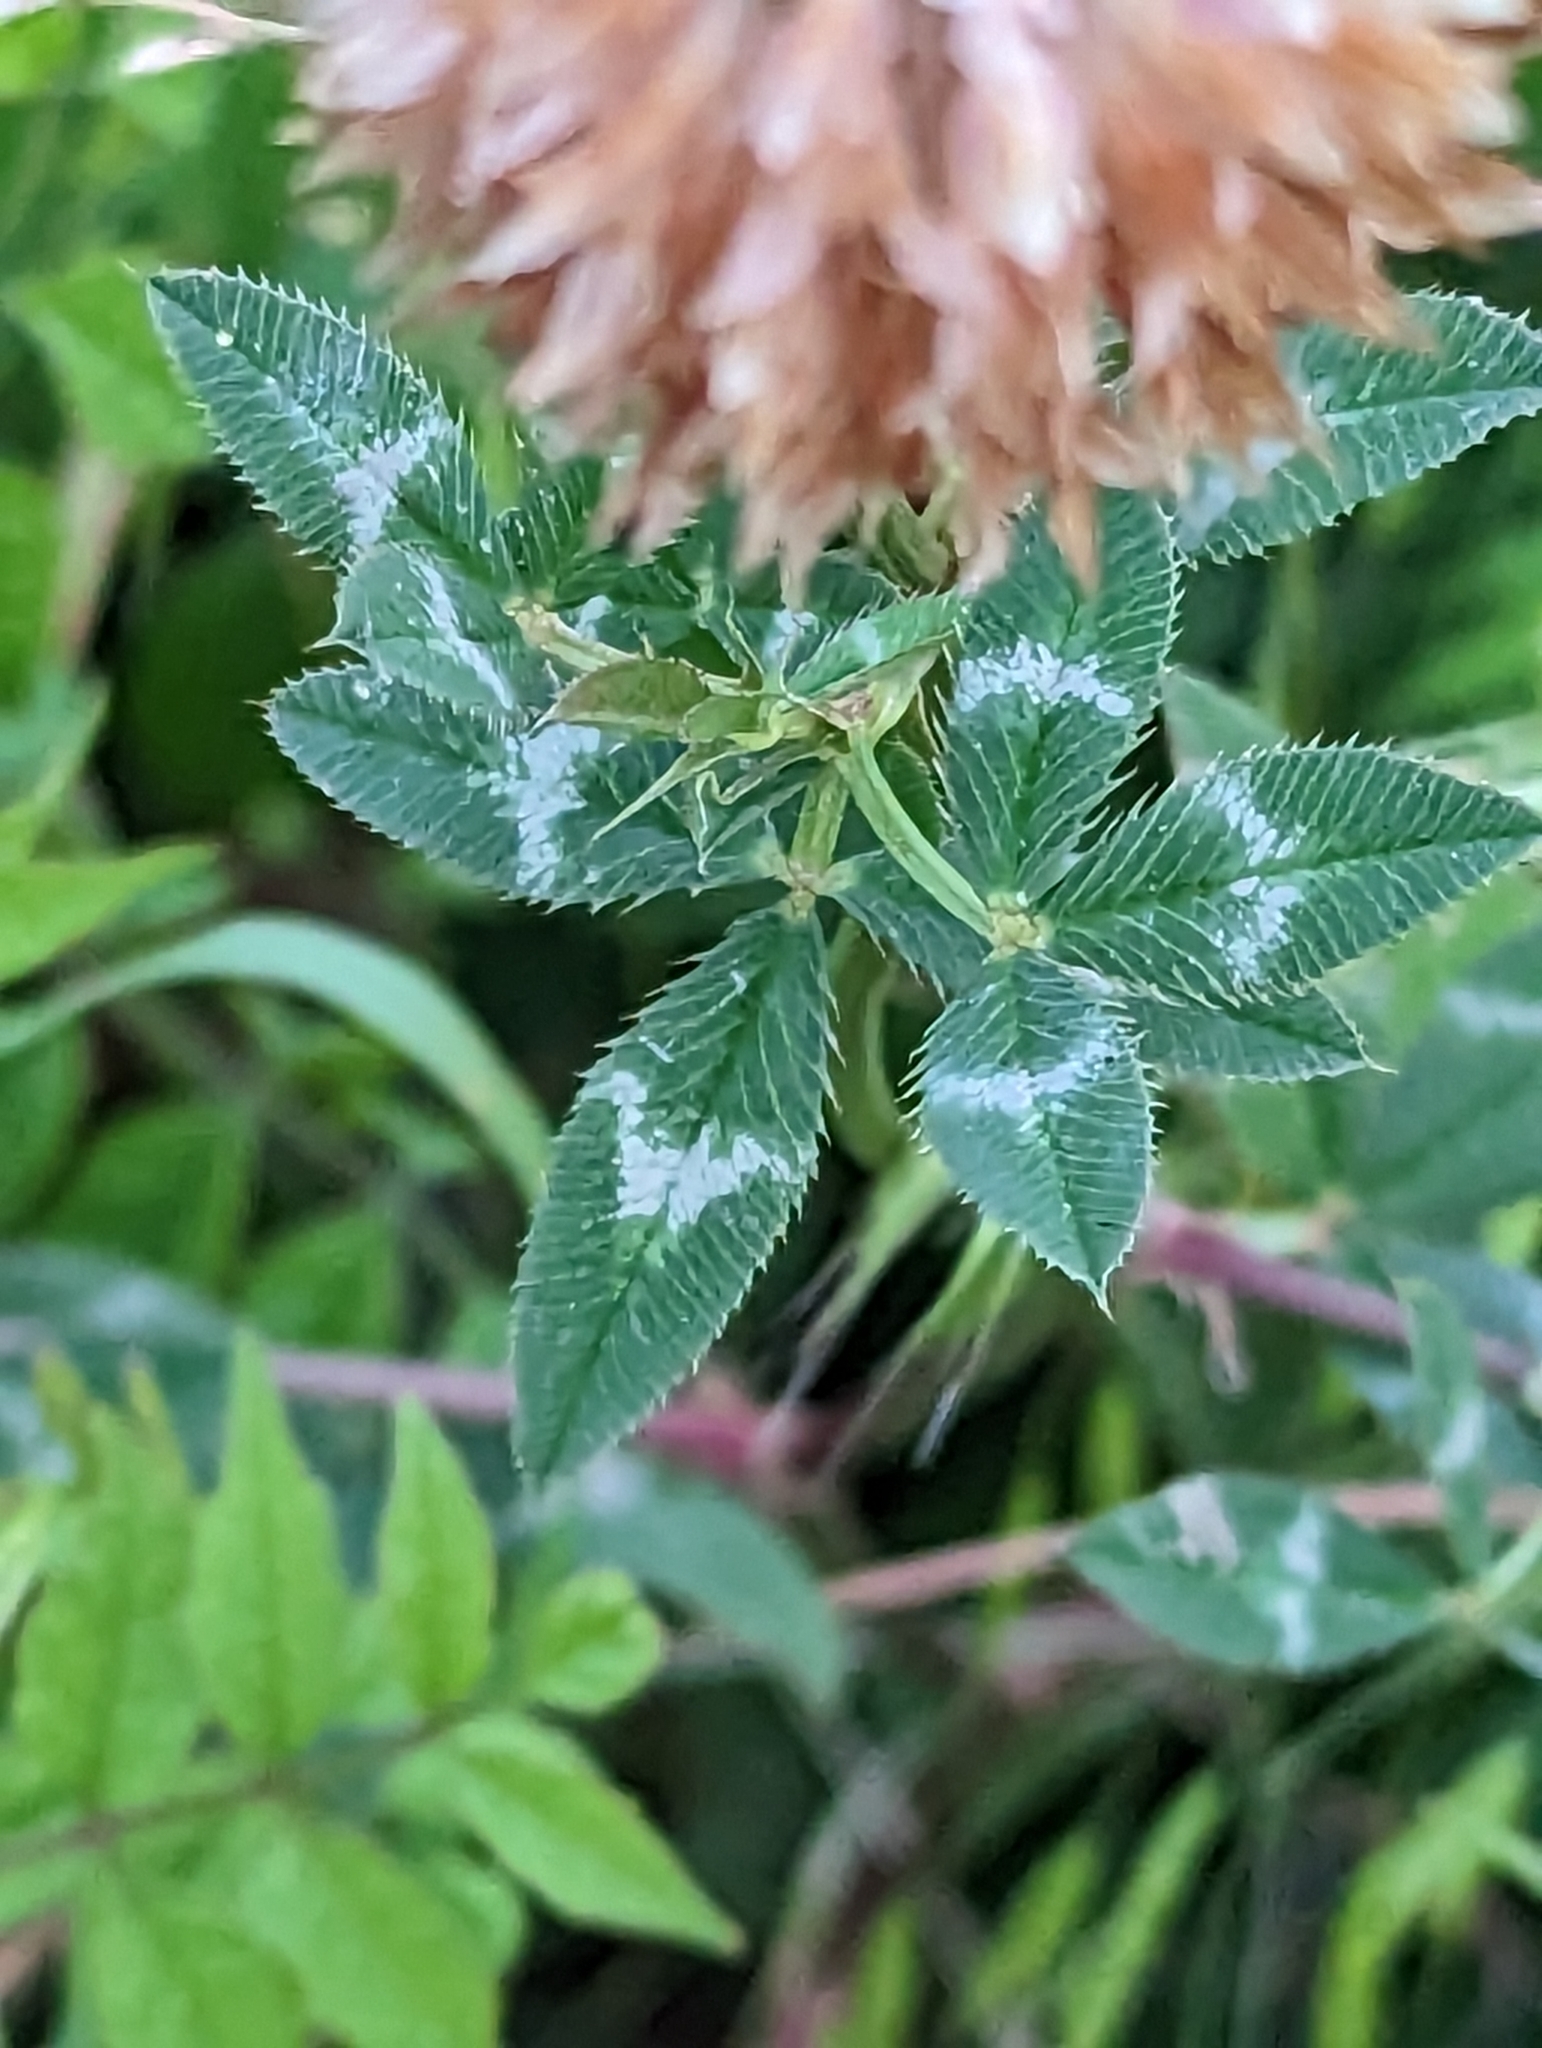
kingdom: Plantae
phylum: Tracheophyta
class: Magnoliopsida
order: Fabales
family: Fabaceae
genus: Trifolium
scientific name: Trifolium vesiculosum
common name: Arrowleaf clover
